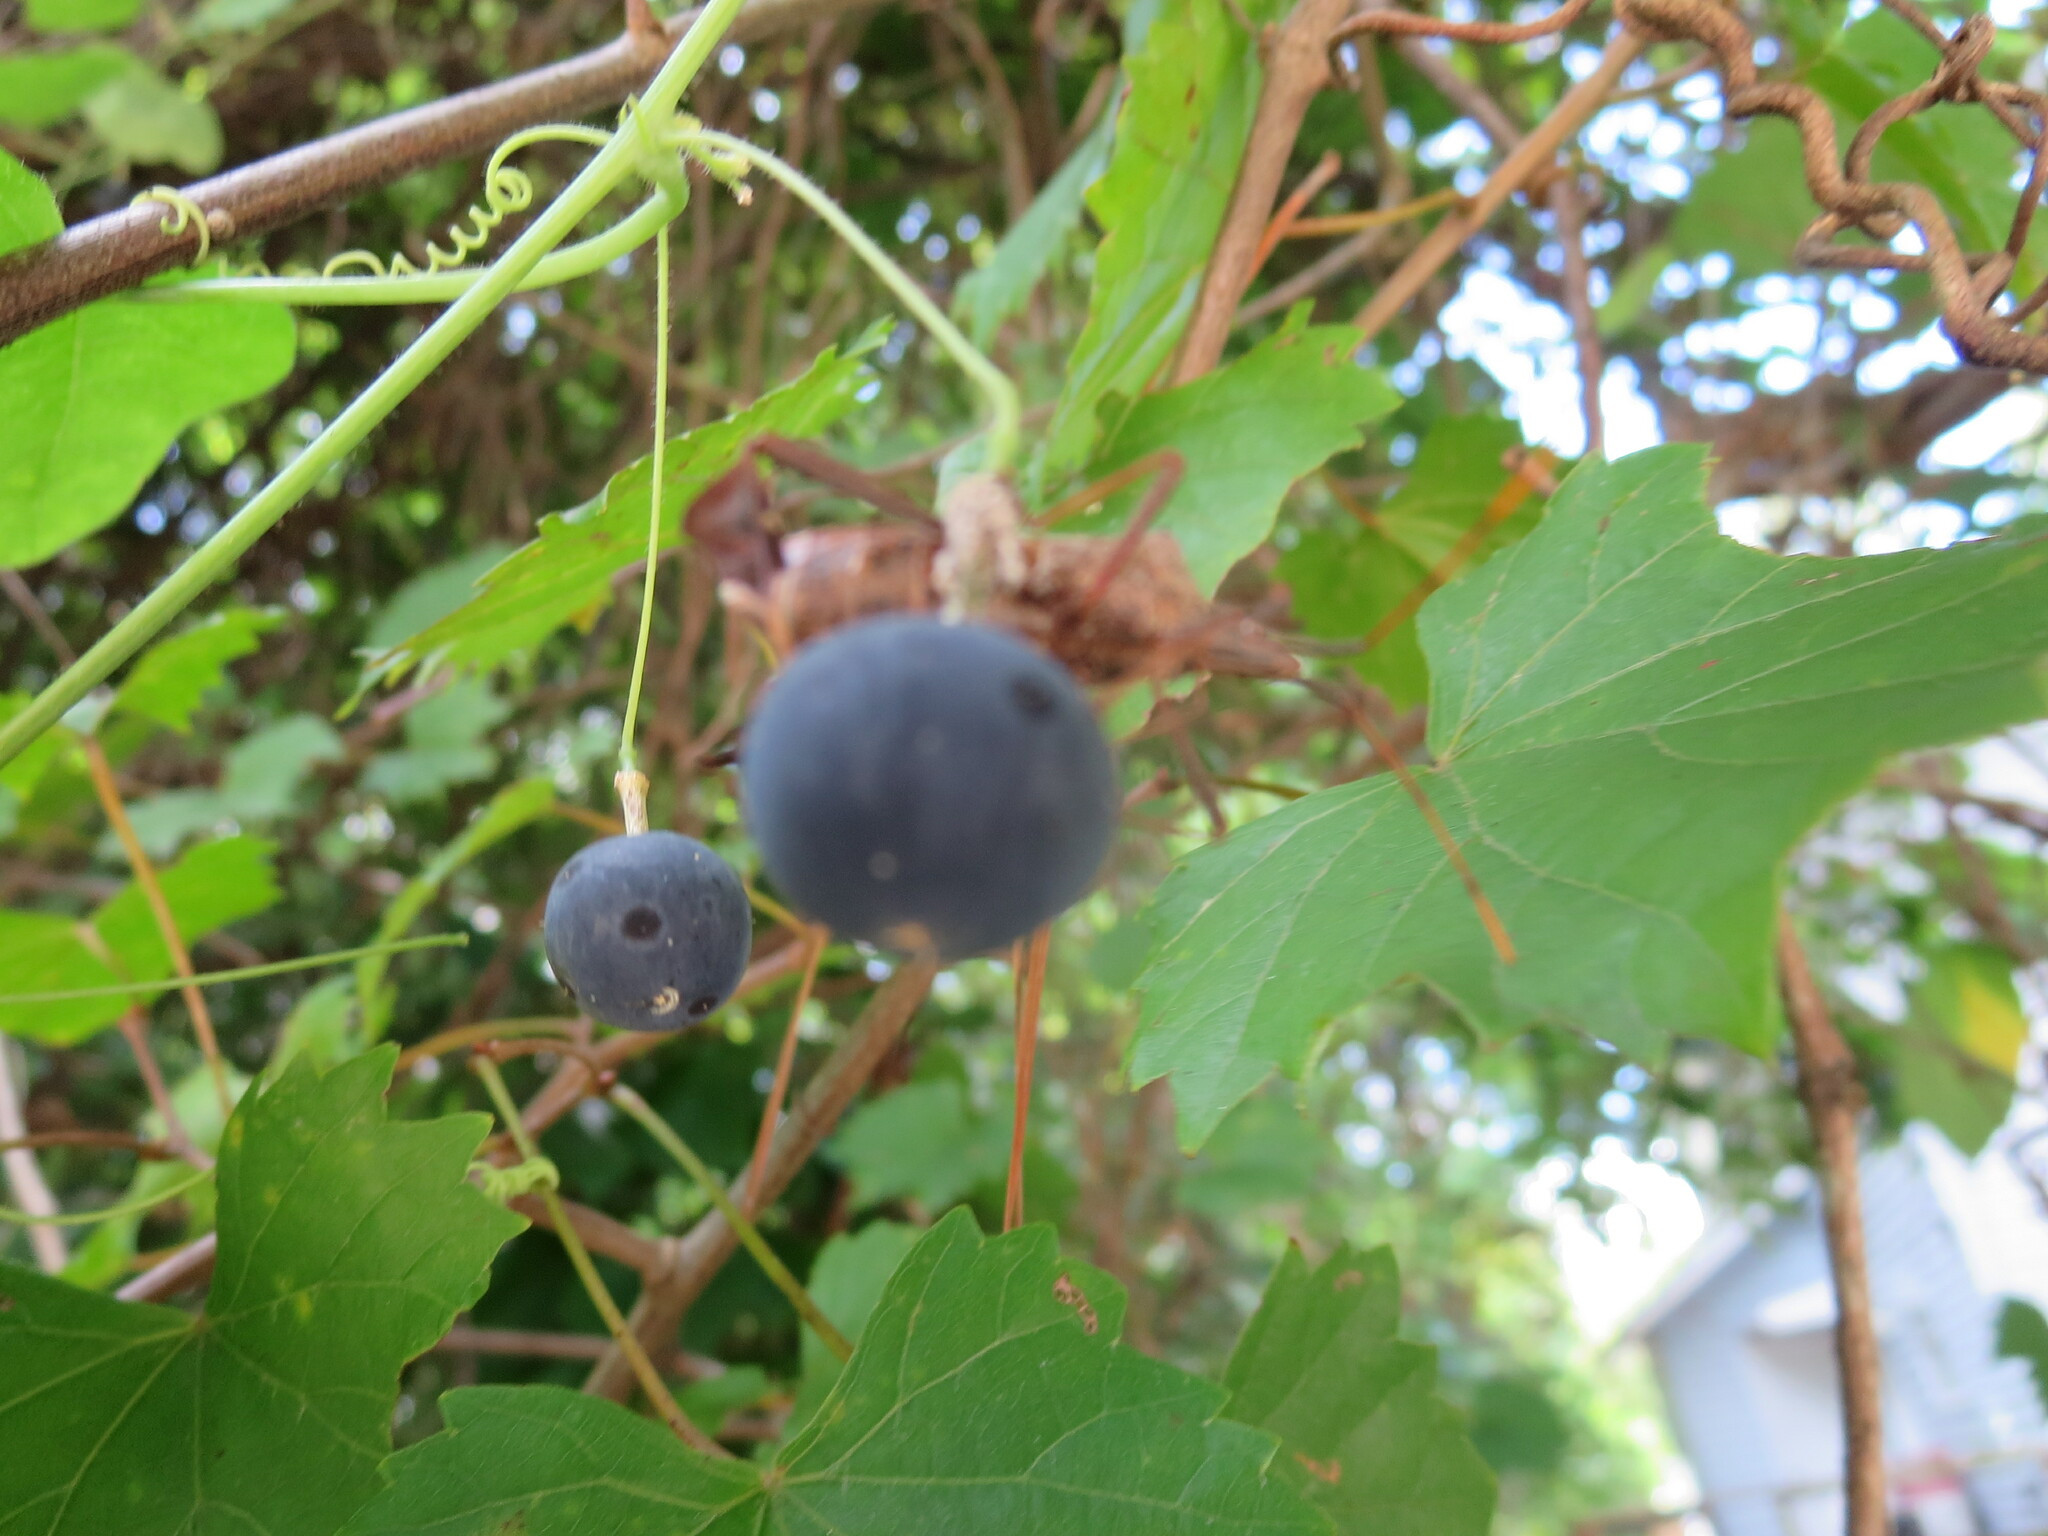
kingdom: Plantae
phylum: Tracheophyta
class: Magnoliopsida
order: Malpighiales
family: Passifloraceae
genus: Passiflora
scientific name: Passiflora lutea
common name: Yellow passionflower
